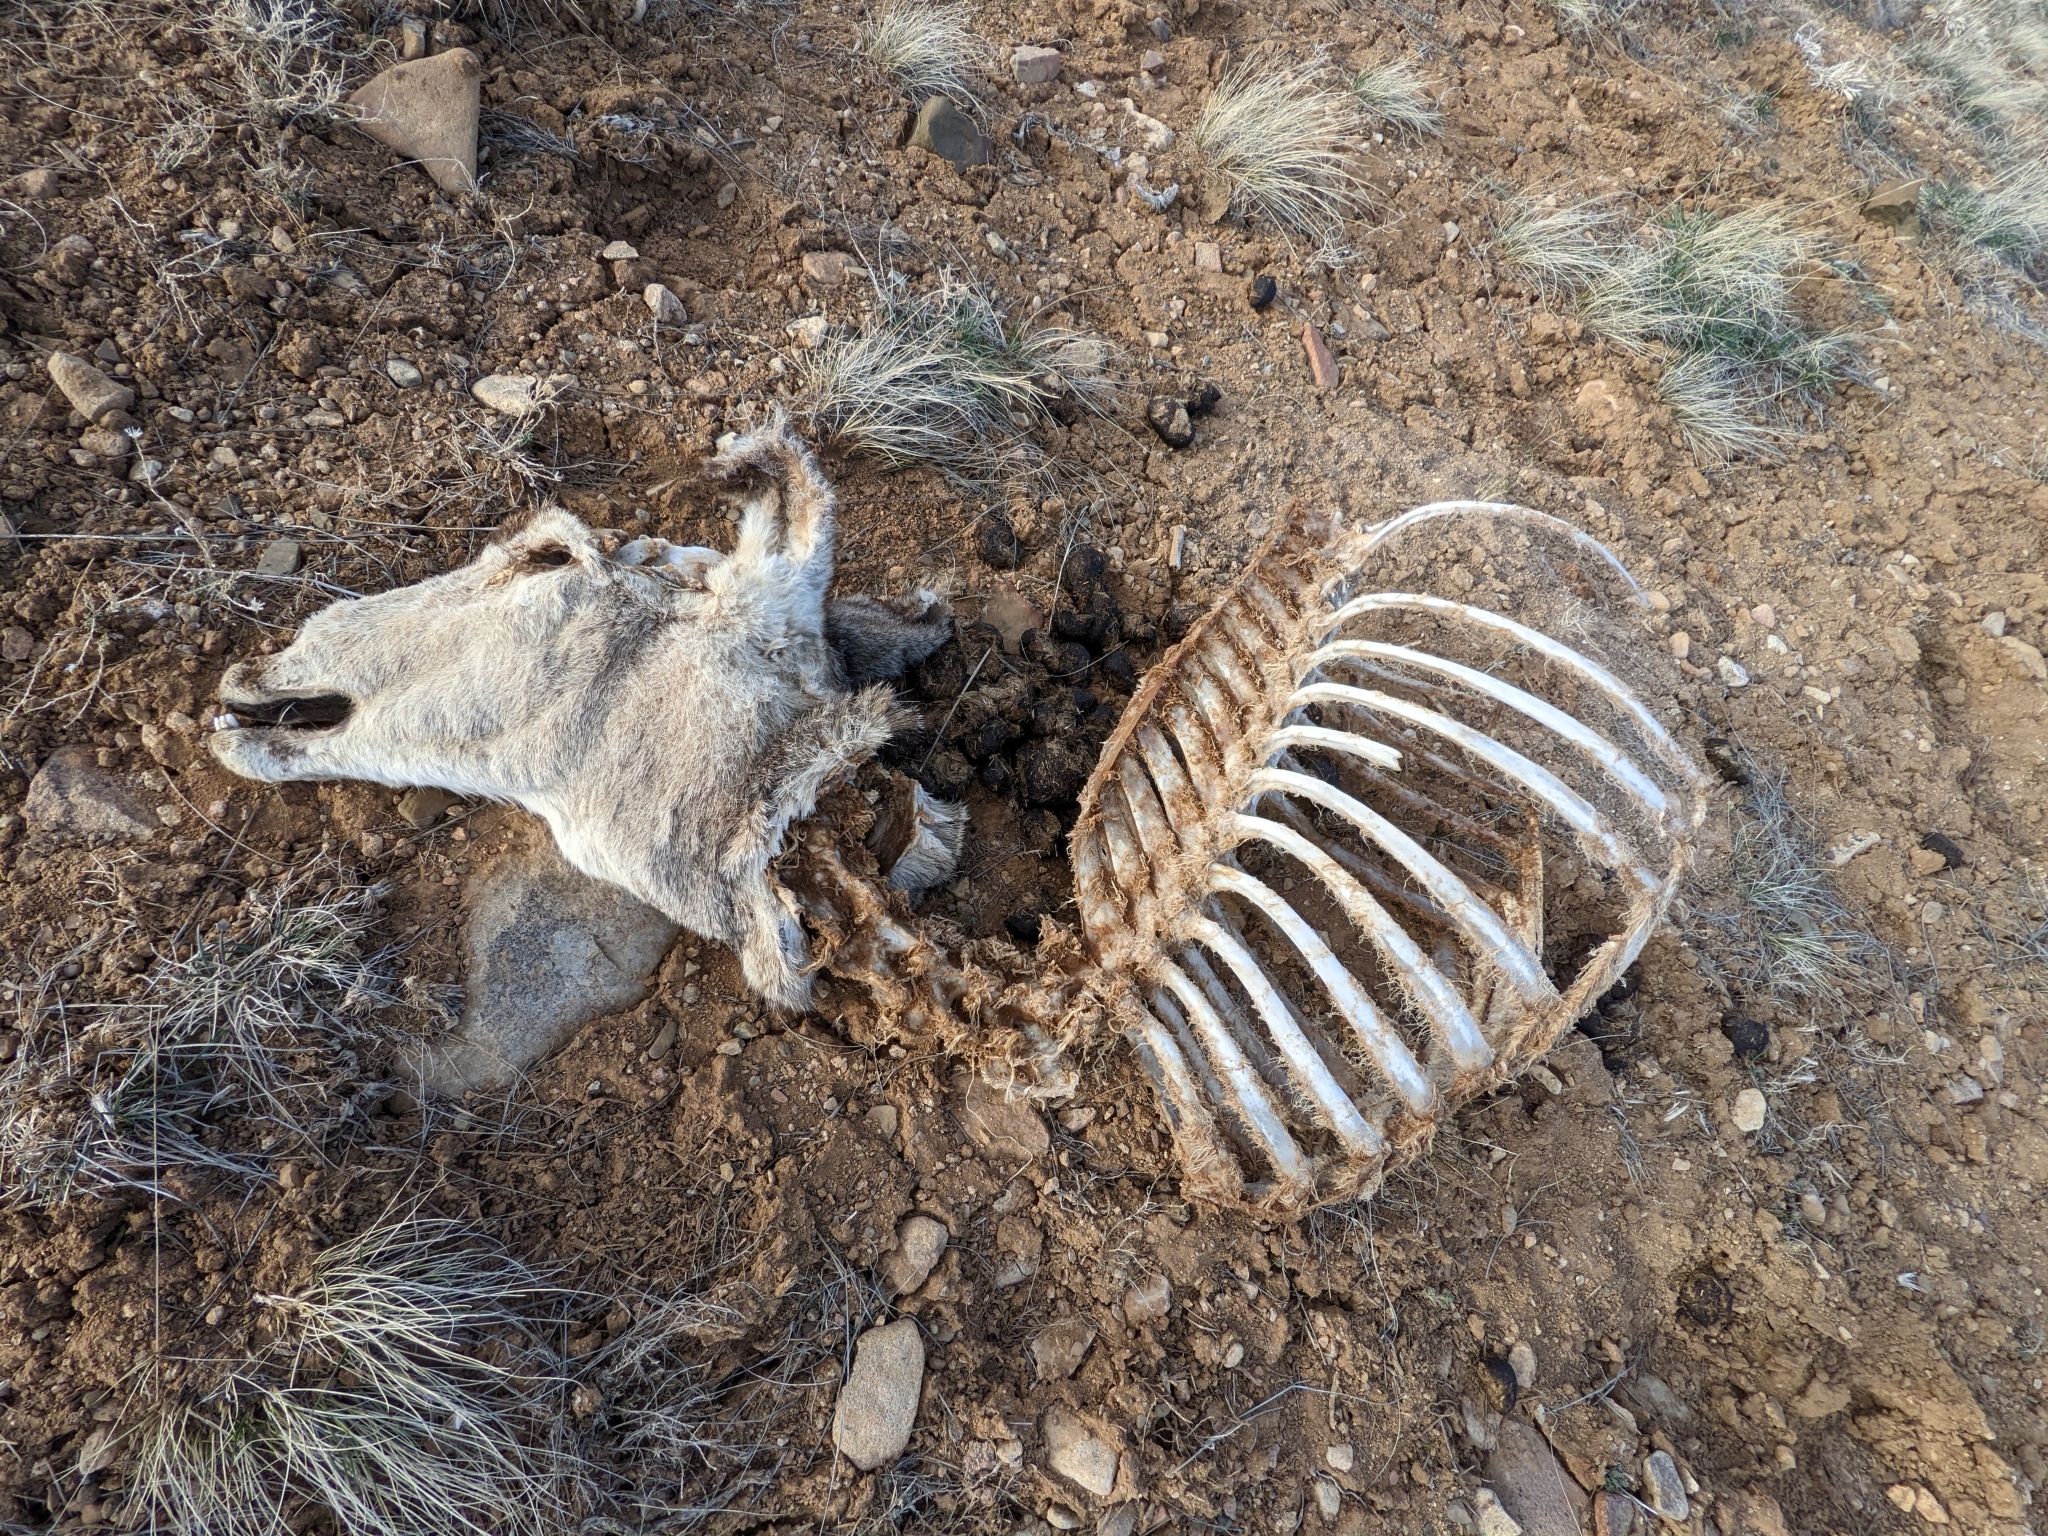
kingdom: Animalia
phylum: Chordata
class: Mammalia
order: Artiodactyla
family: Cervidae
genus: Odocoileus
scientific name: Odocoileus hemionus
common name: Mule deer
